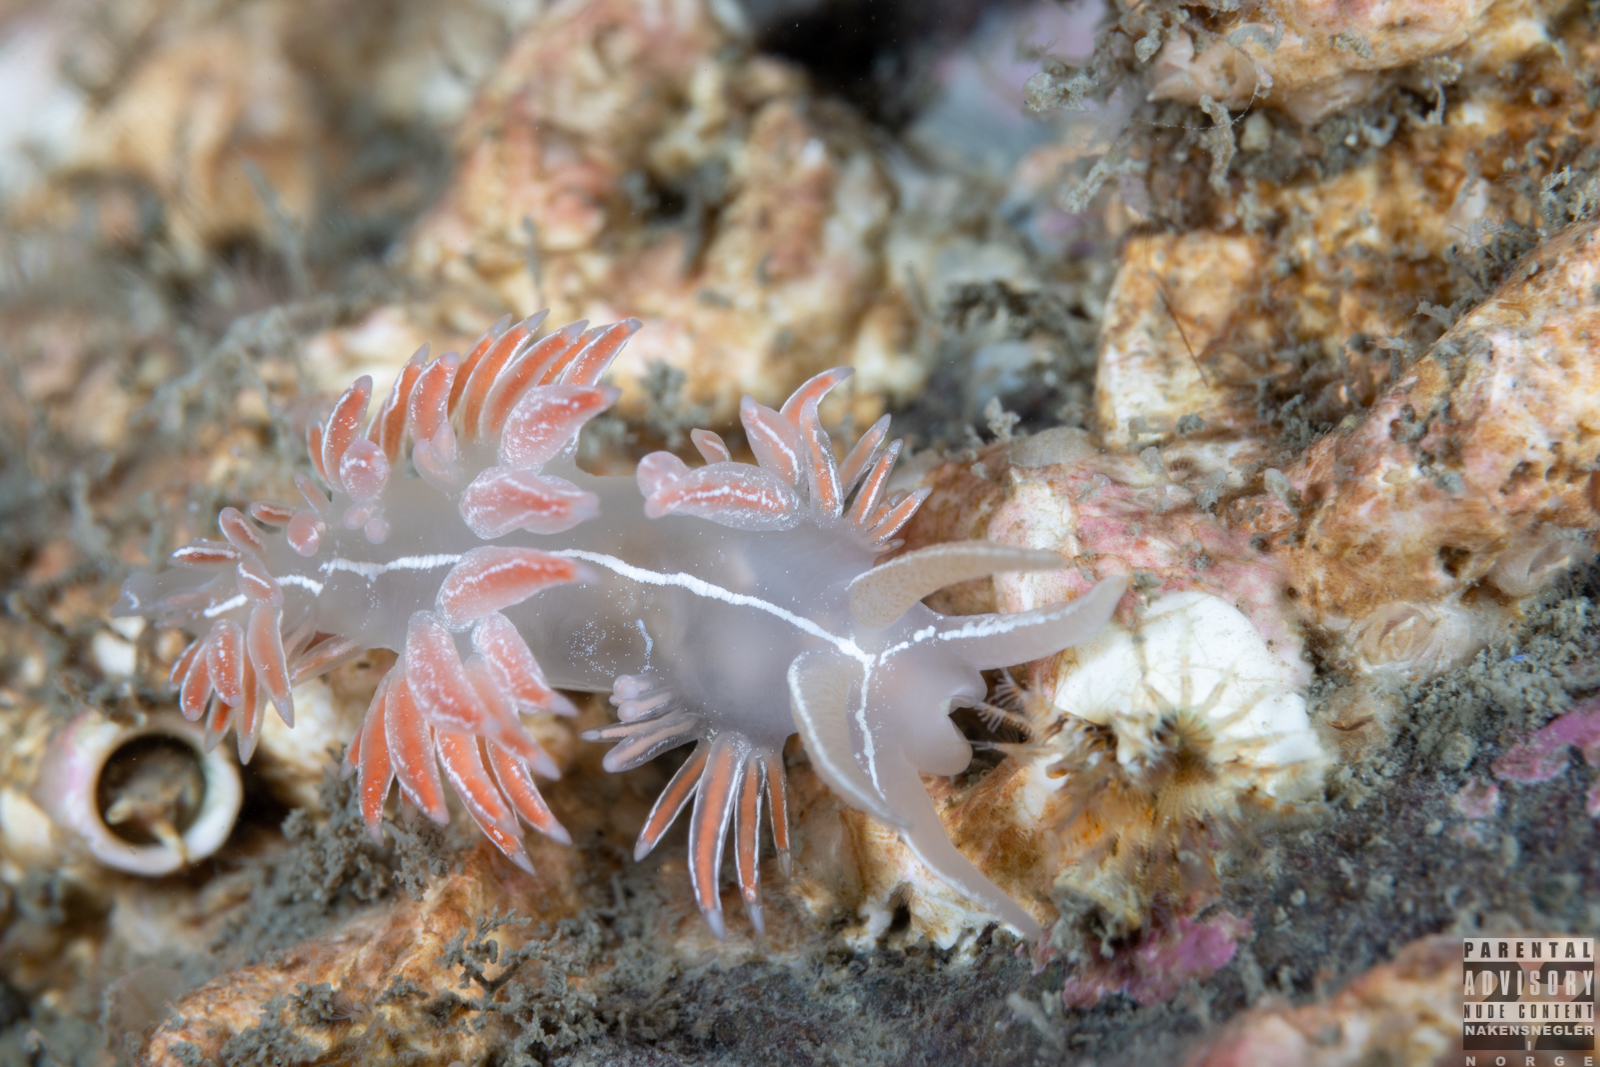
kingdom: Animalia
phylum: Mollusca
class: Gastropoda
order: Nudibranchia
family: Coryphellidae
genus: Coryphella
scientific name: Coryphella chriskaugei
